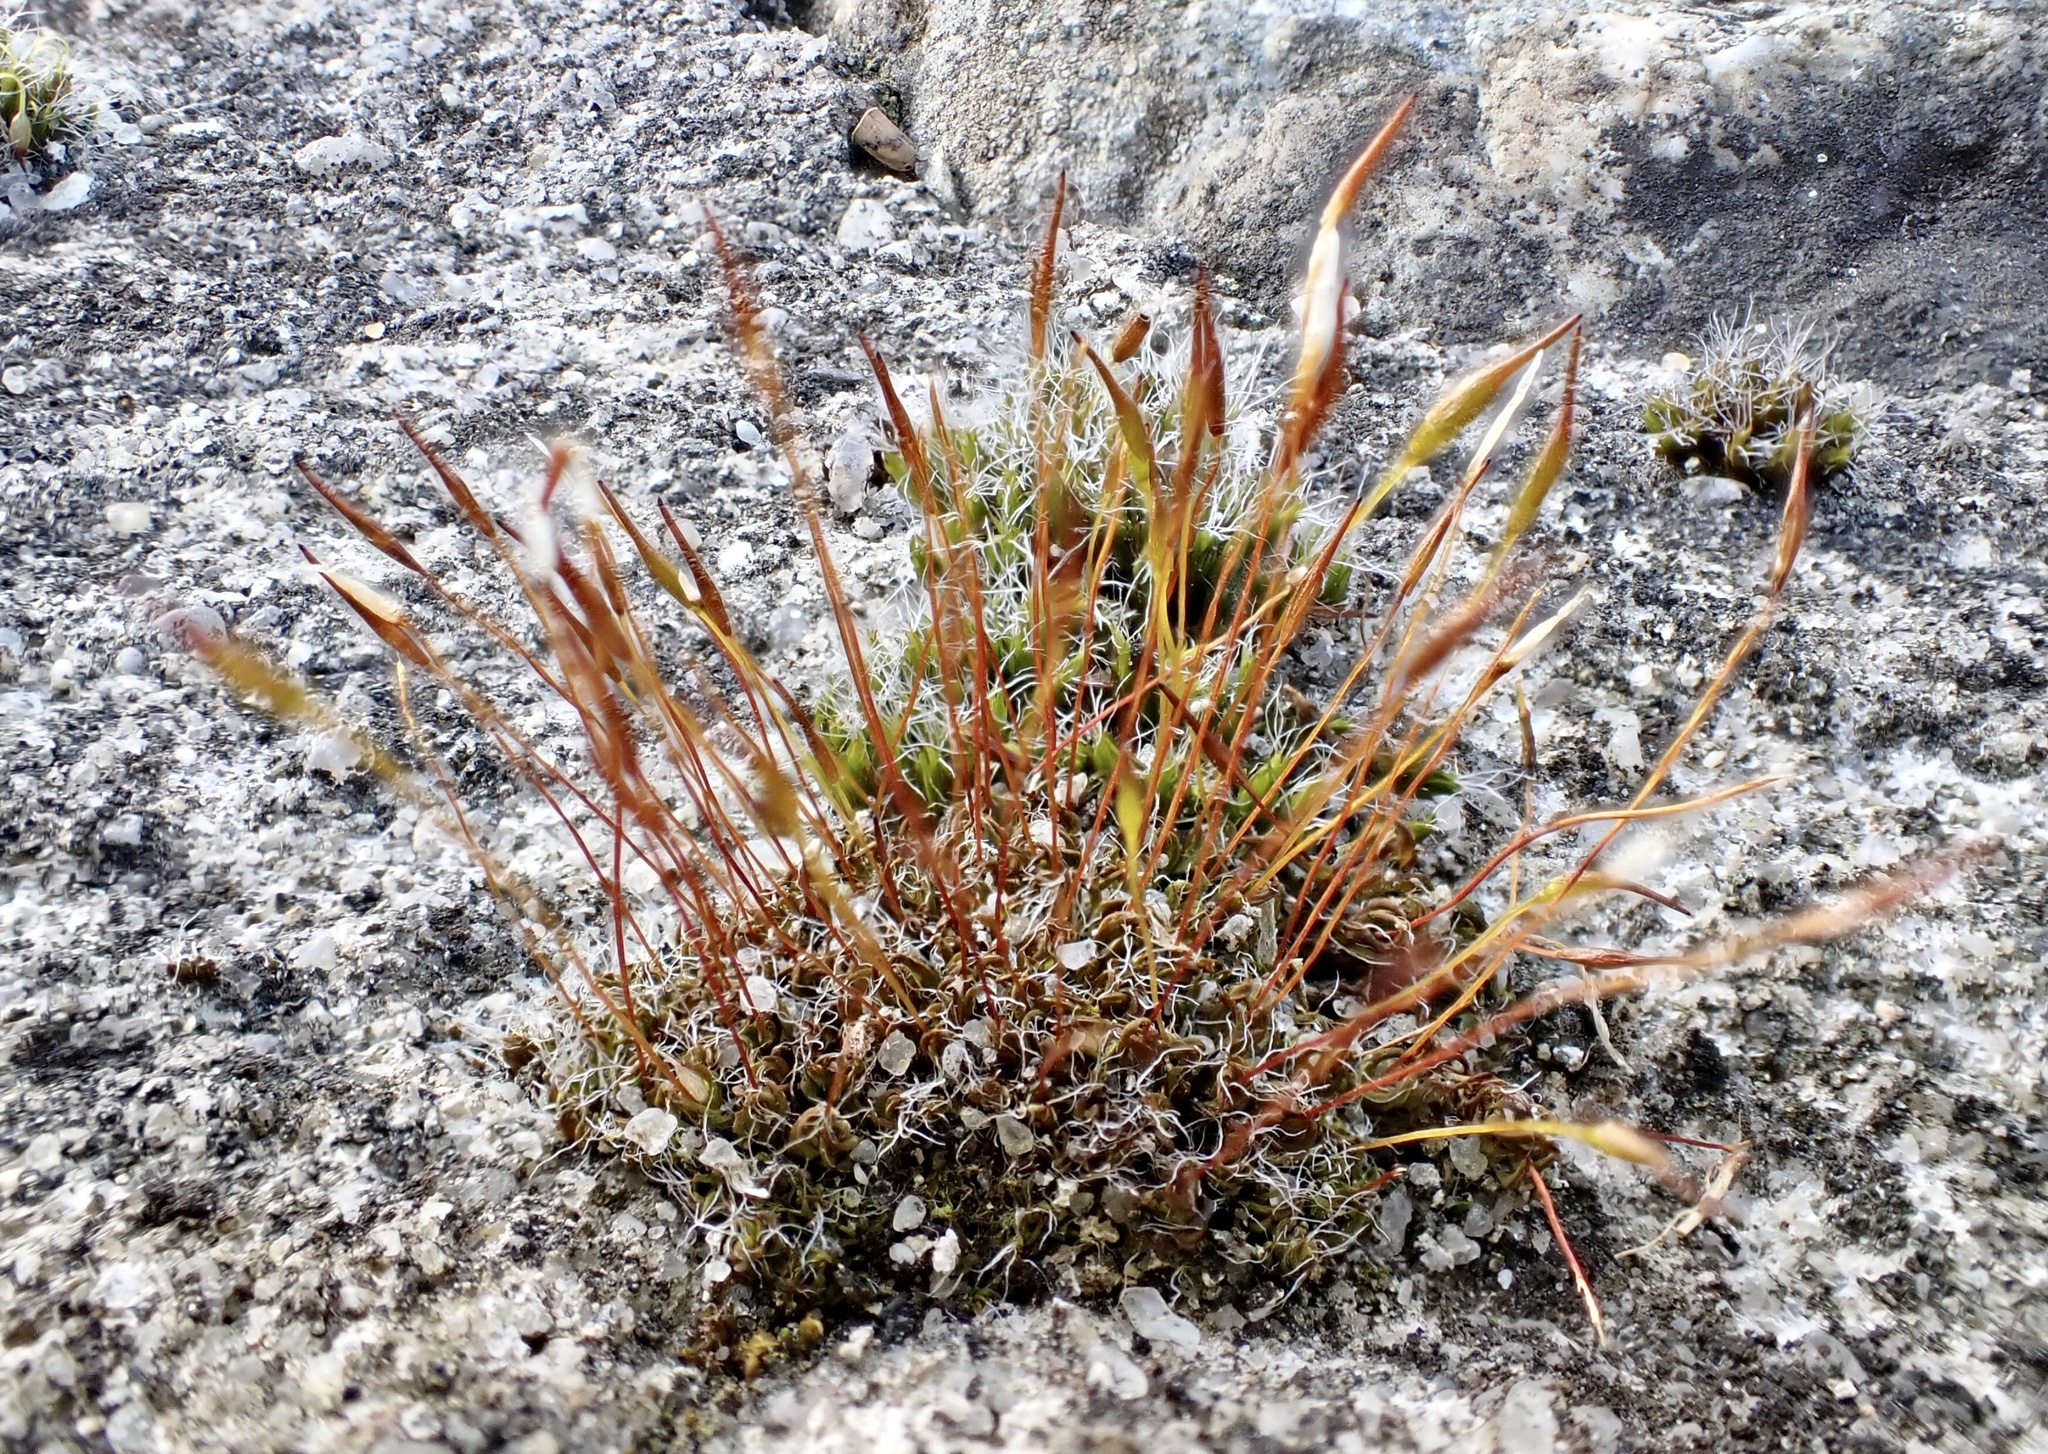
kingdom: Plantae
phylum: Bryophyta
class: Bryopsida
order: Pottiales
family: Pottiaceae
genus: Tortula
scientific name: Tortula muralis
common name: Wall screw-moss
